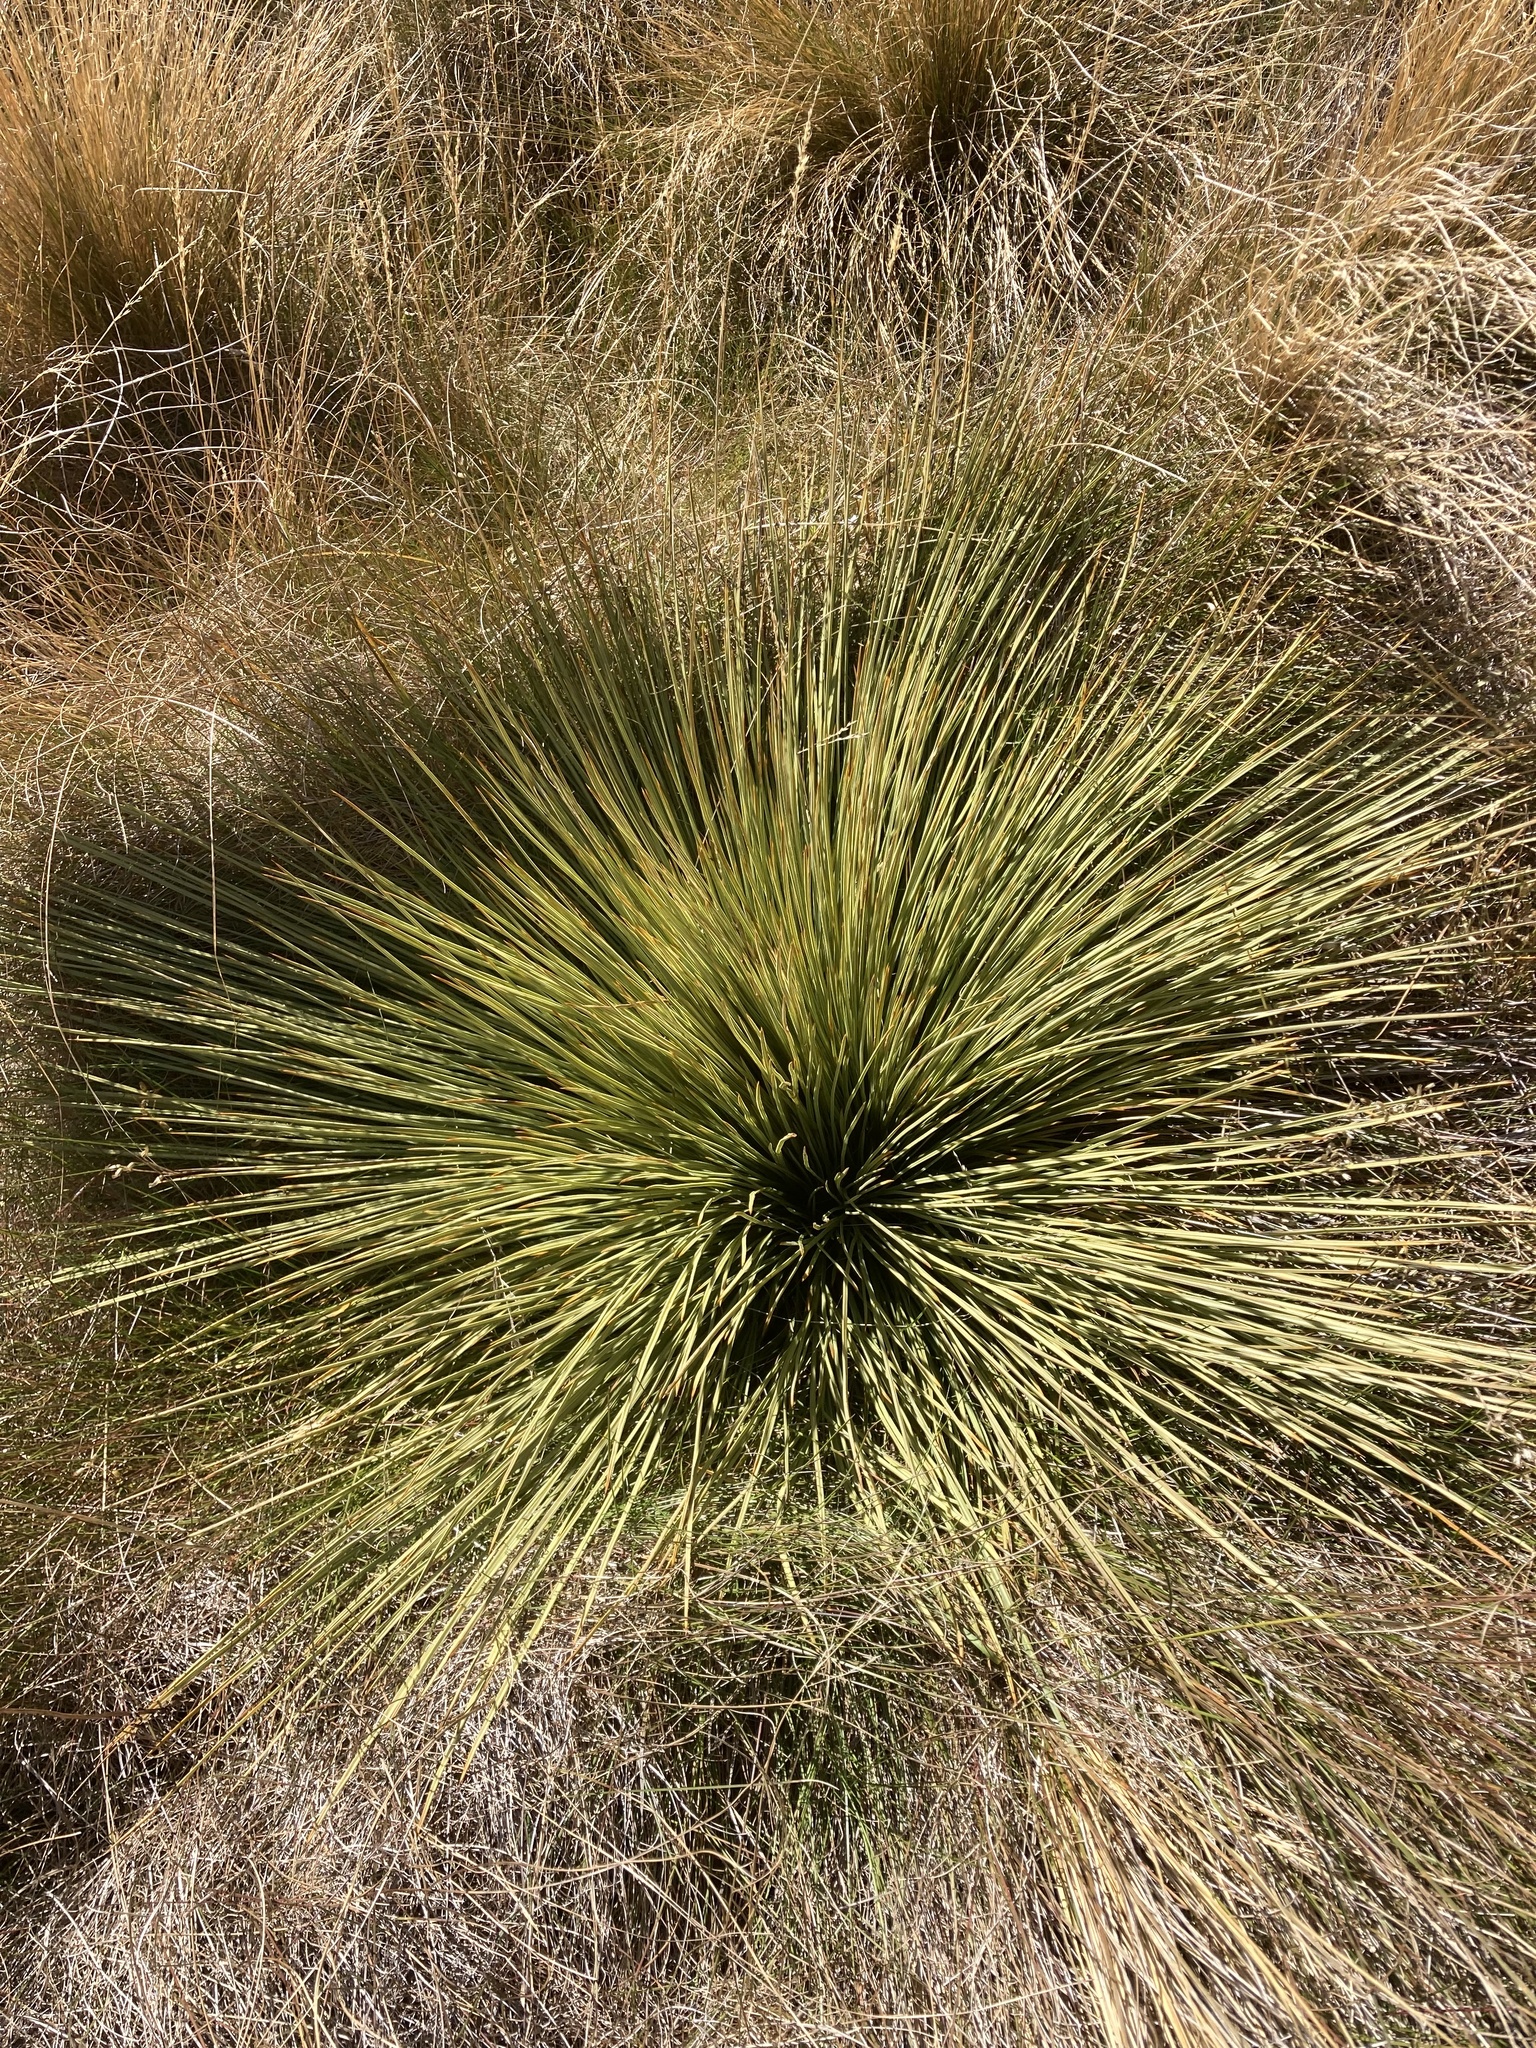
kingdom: Plantae
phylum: Tracheophyta
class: Magnoliopsida
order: Apiales
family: Apiaceae
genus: Aciphylla
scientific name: Aciphylla subflabellata
